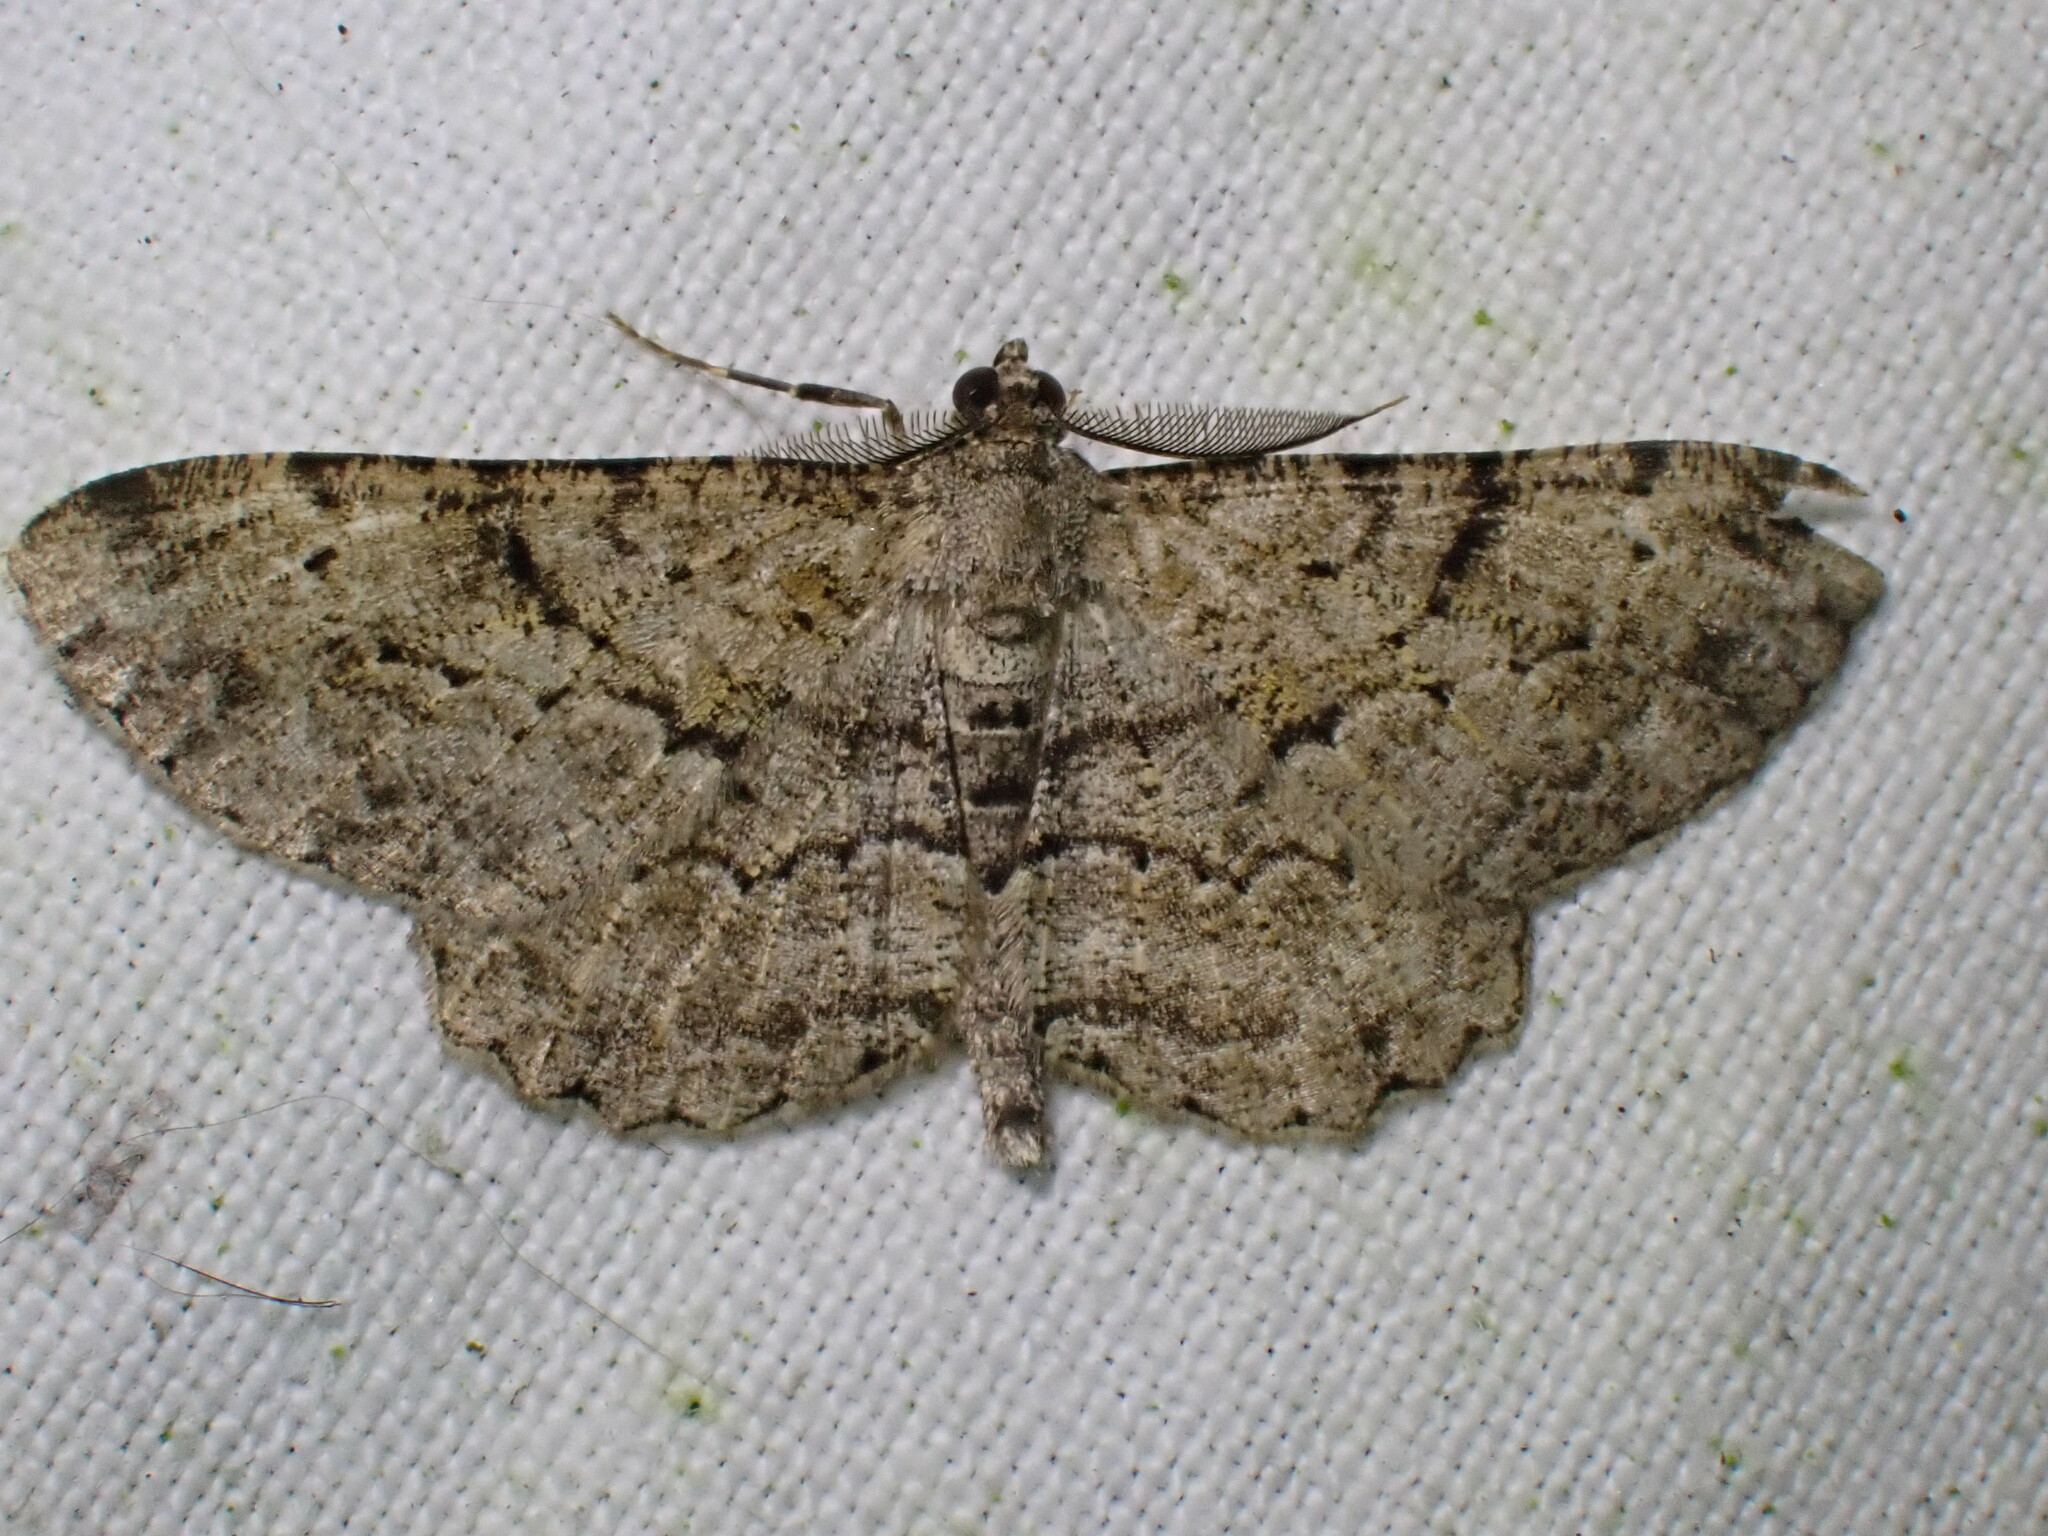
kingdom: Animalia
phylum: Arthropoda
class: Insecta
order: Lepidoptera
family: Geometridae
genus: Peribatodes
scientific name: Peribatodes rhomboidaria
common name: Willow beauty
